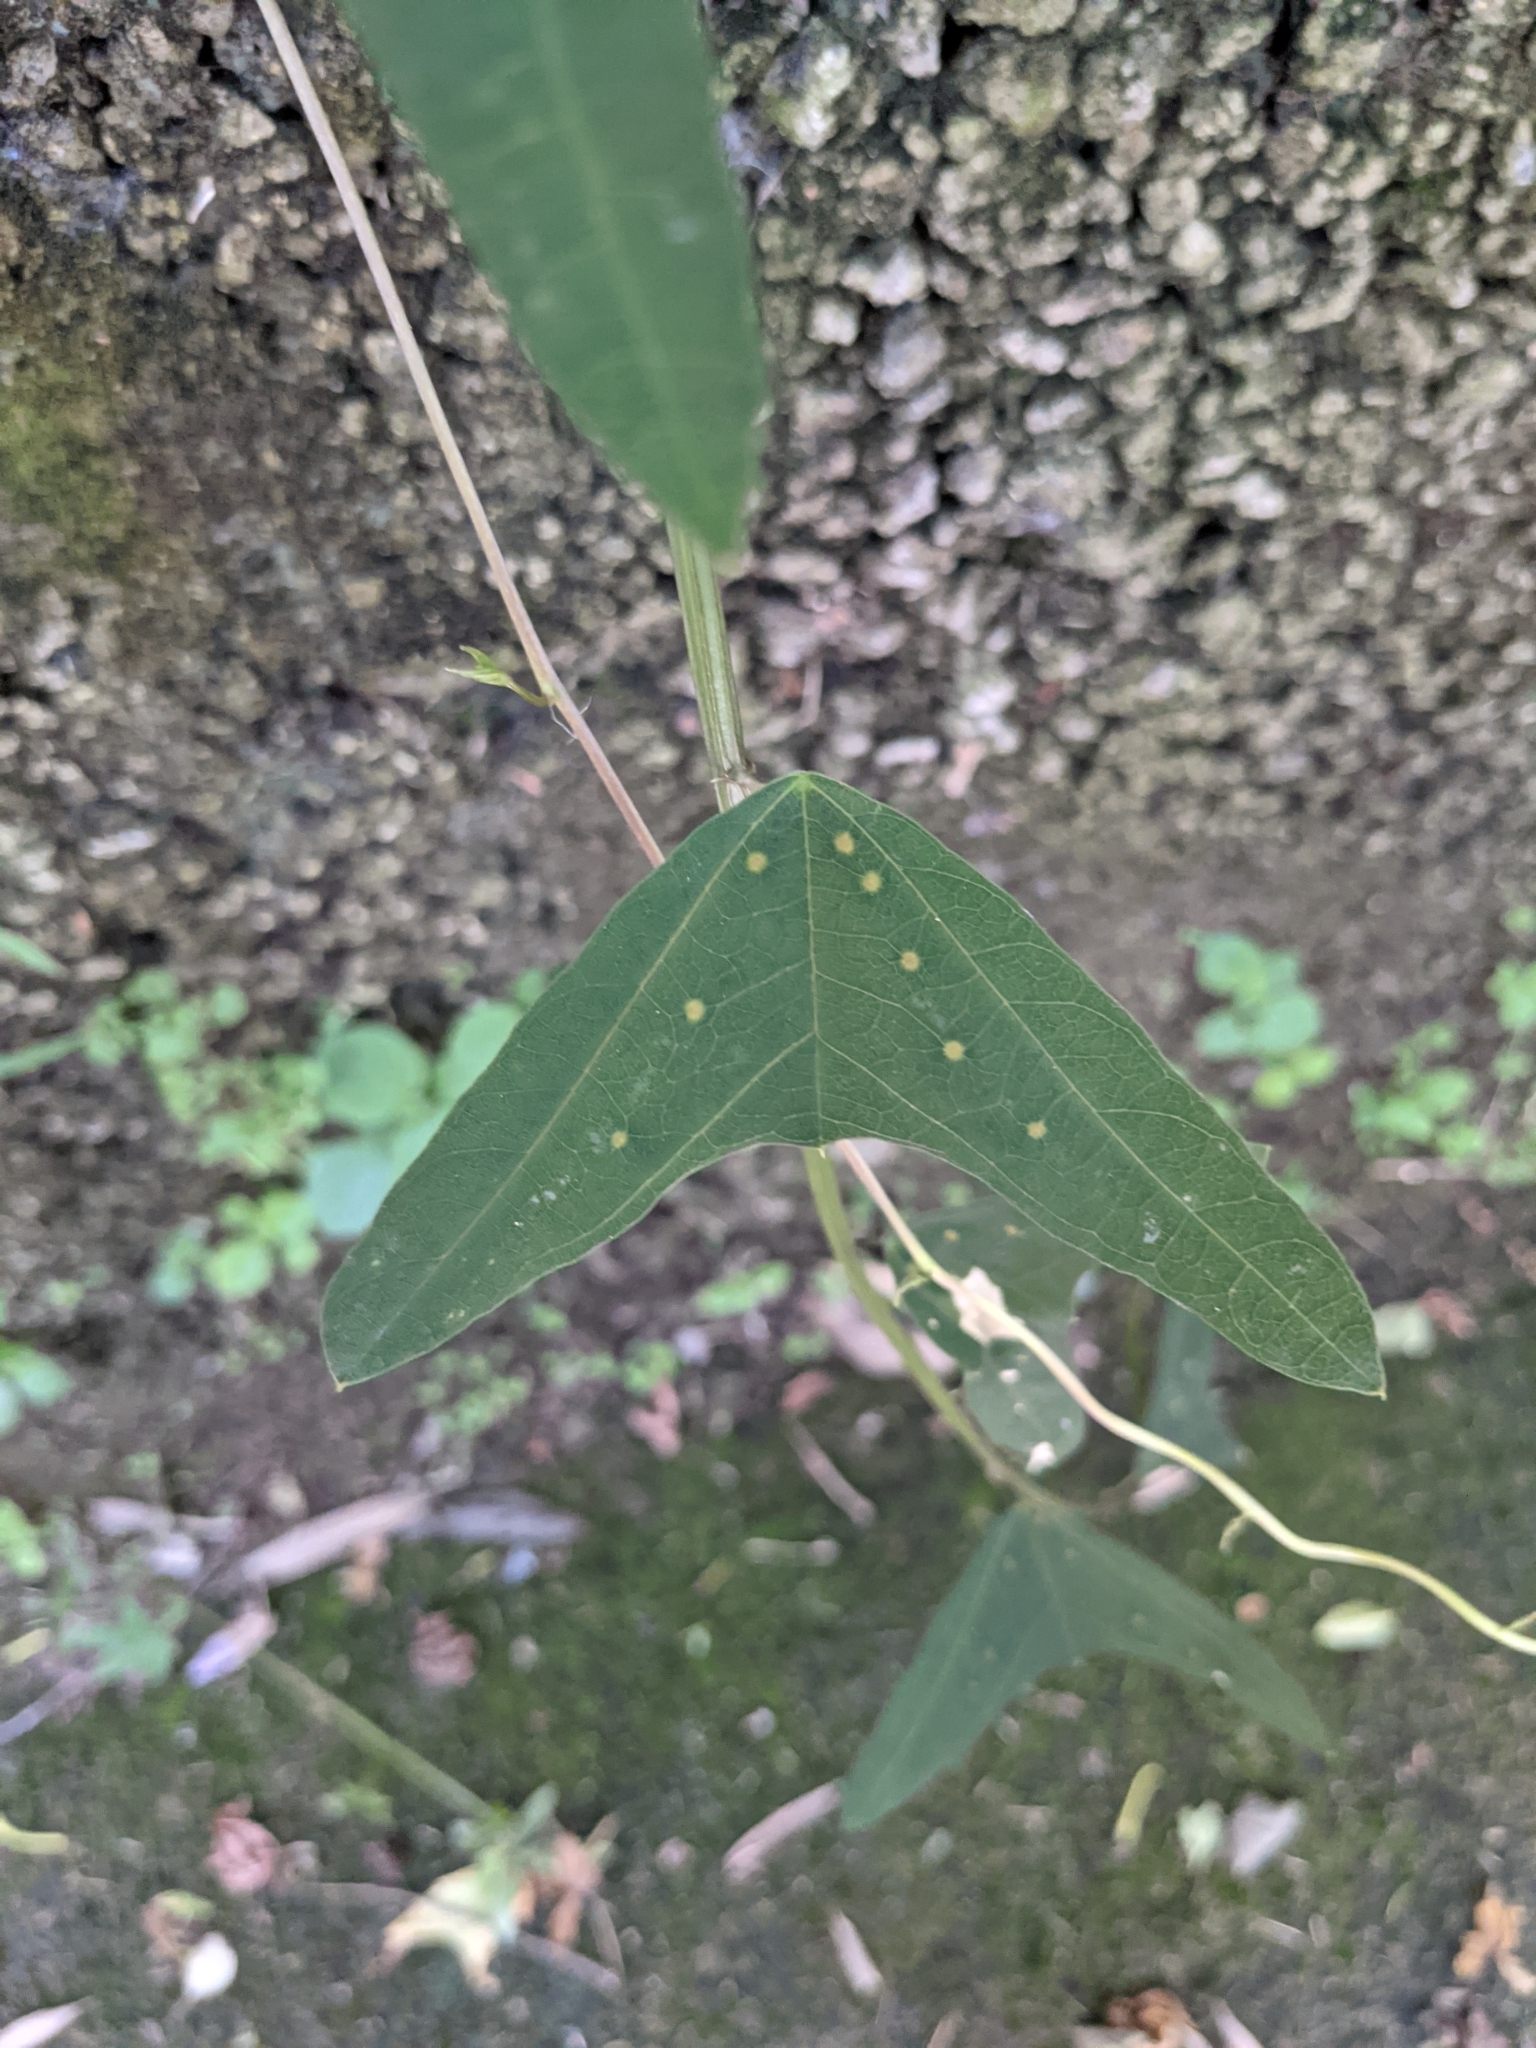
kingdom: Plantae
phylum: Tracheophyta
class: Magnoliopsida
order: Malpighiales
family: Passifloraceae
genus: Passiflora
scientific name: Passiflora biflora
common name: Twoflower passionflower
